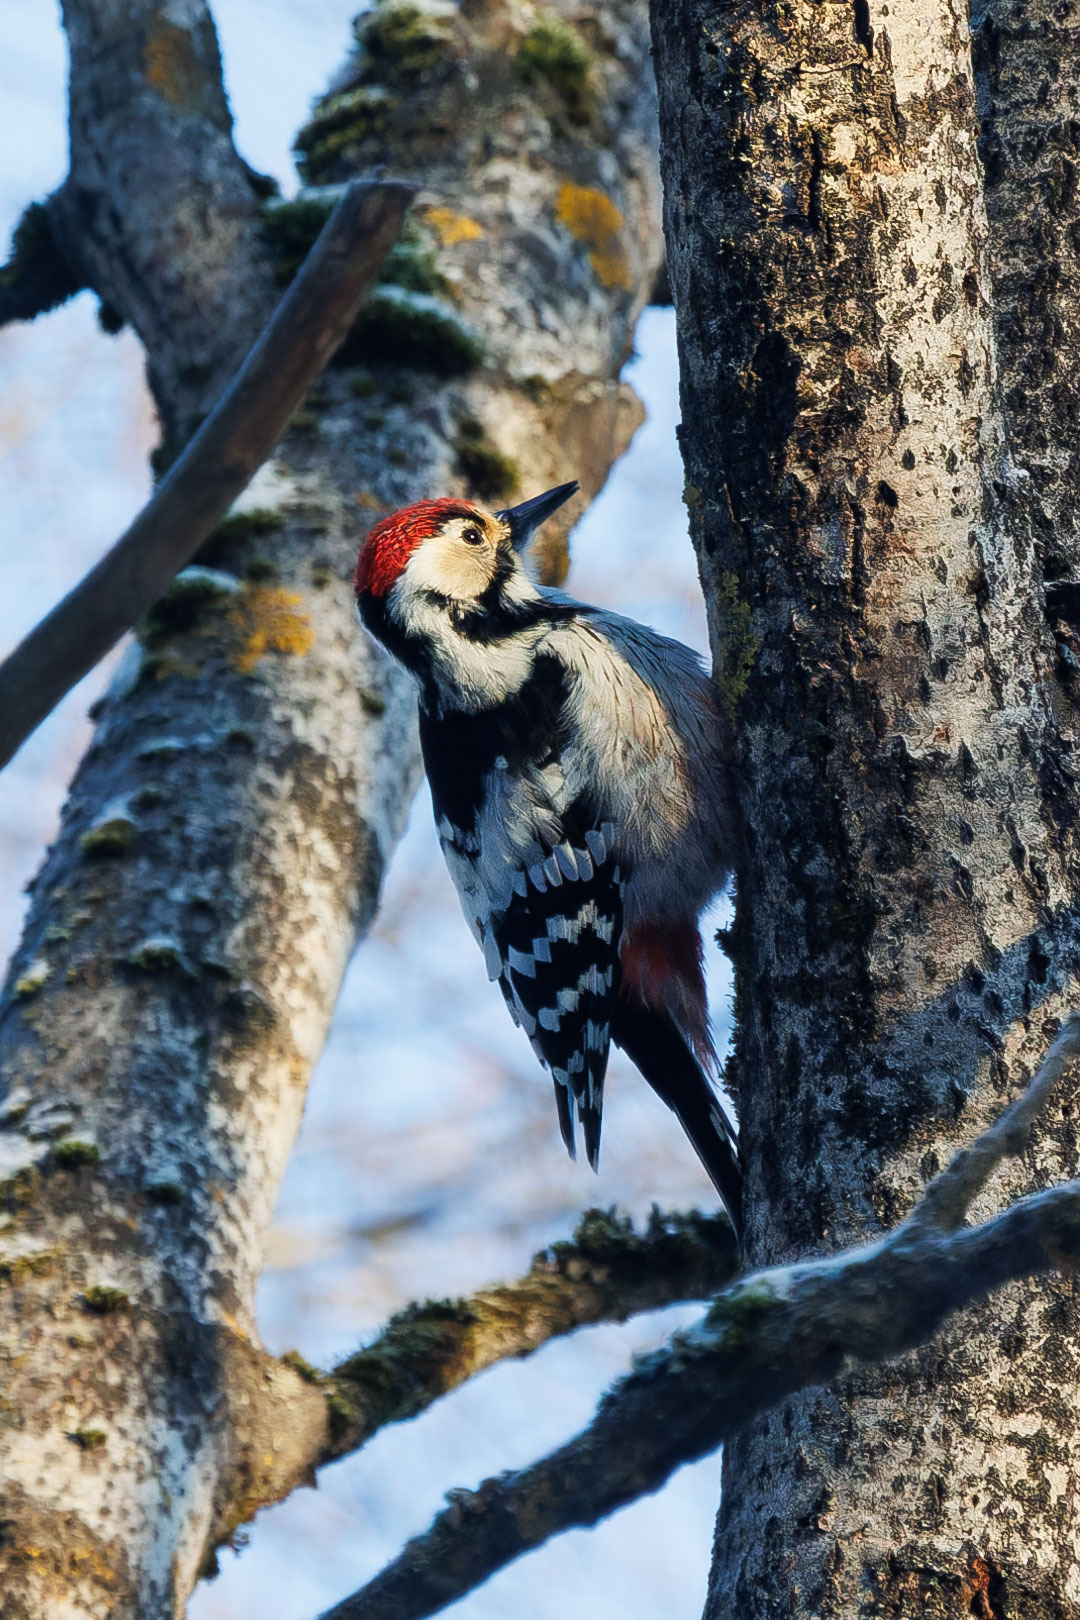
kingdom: Animalia
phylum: Chordata
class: Aves
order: Piciformes
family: Picidae
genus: Dendrocopos
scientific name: Dendrocopos leucotos
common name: White-backed woodpecker
